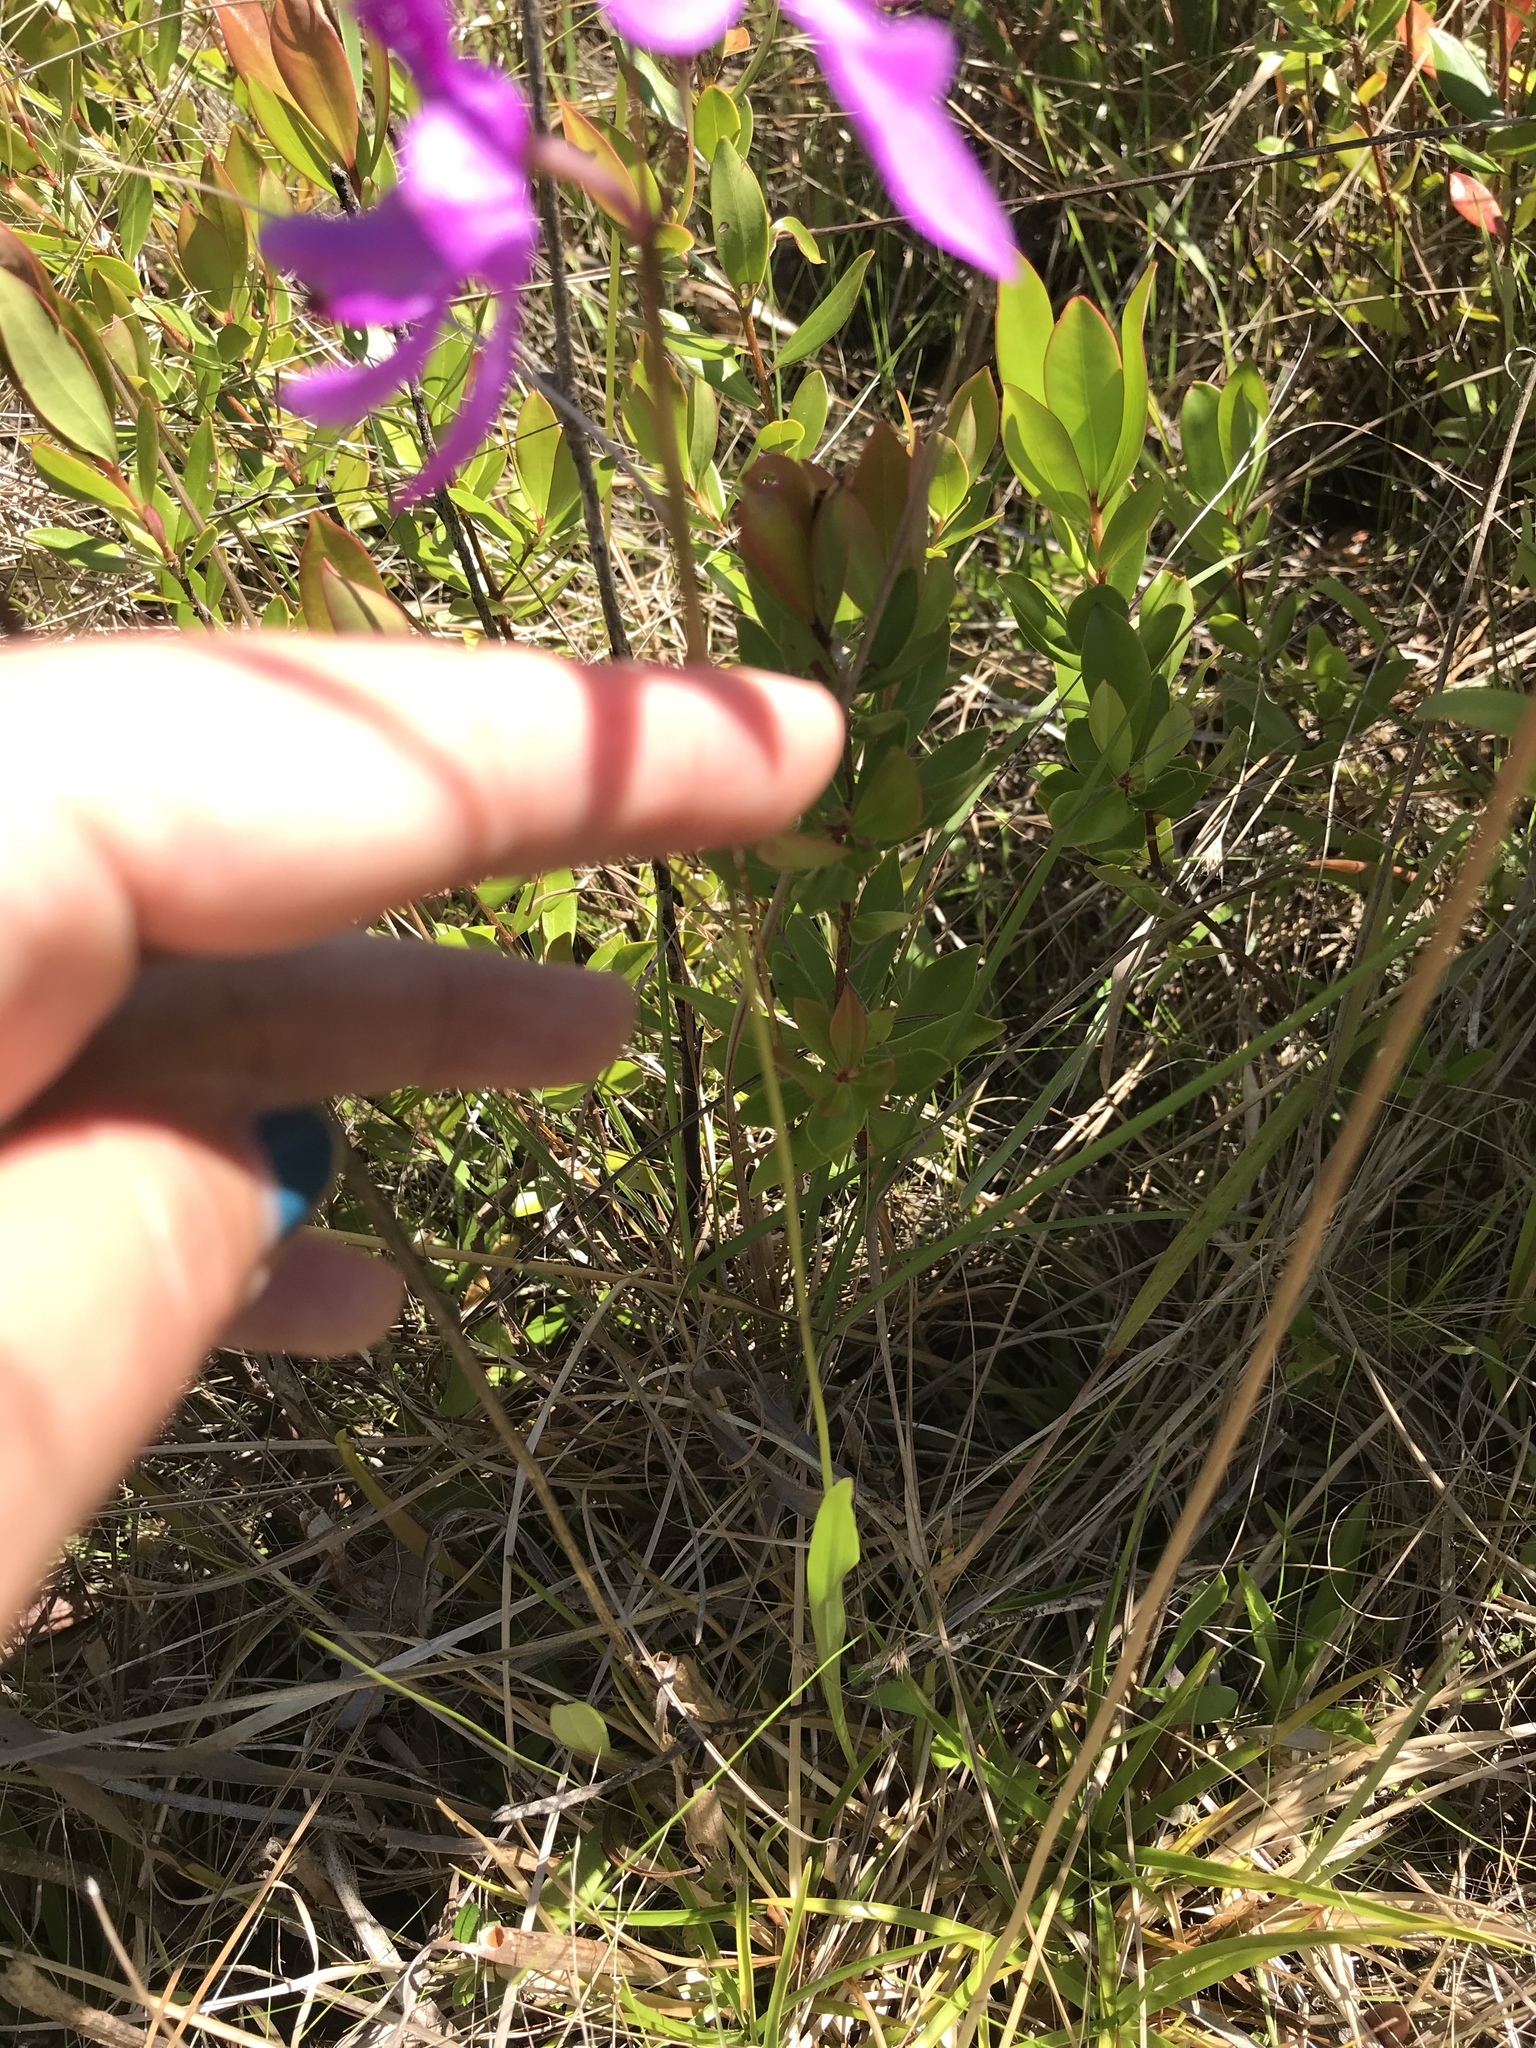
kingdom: Plantae
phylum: Tracheophyta
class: Liliopsida
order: Asparagales
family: Orchidaceae
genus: Calopogon
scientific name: Calopogon tuberosus
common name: Grass-pink
